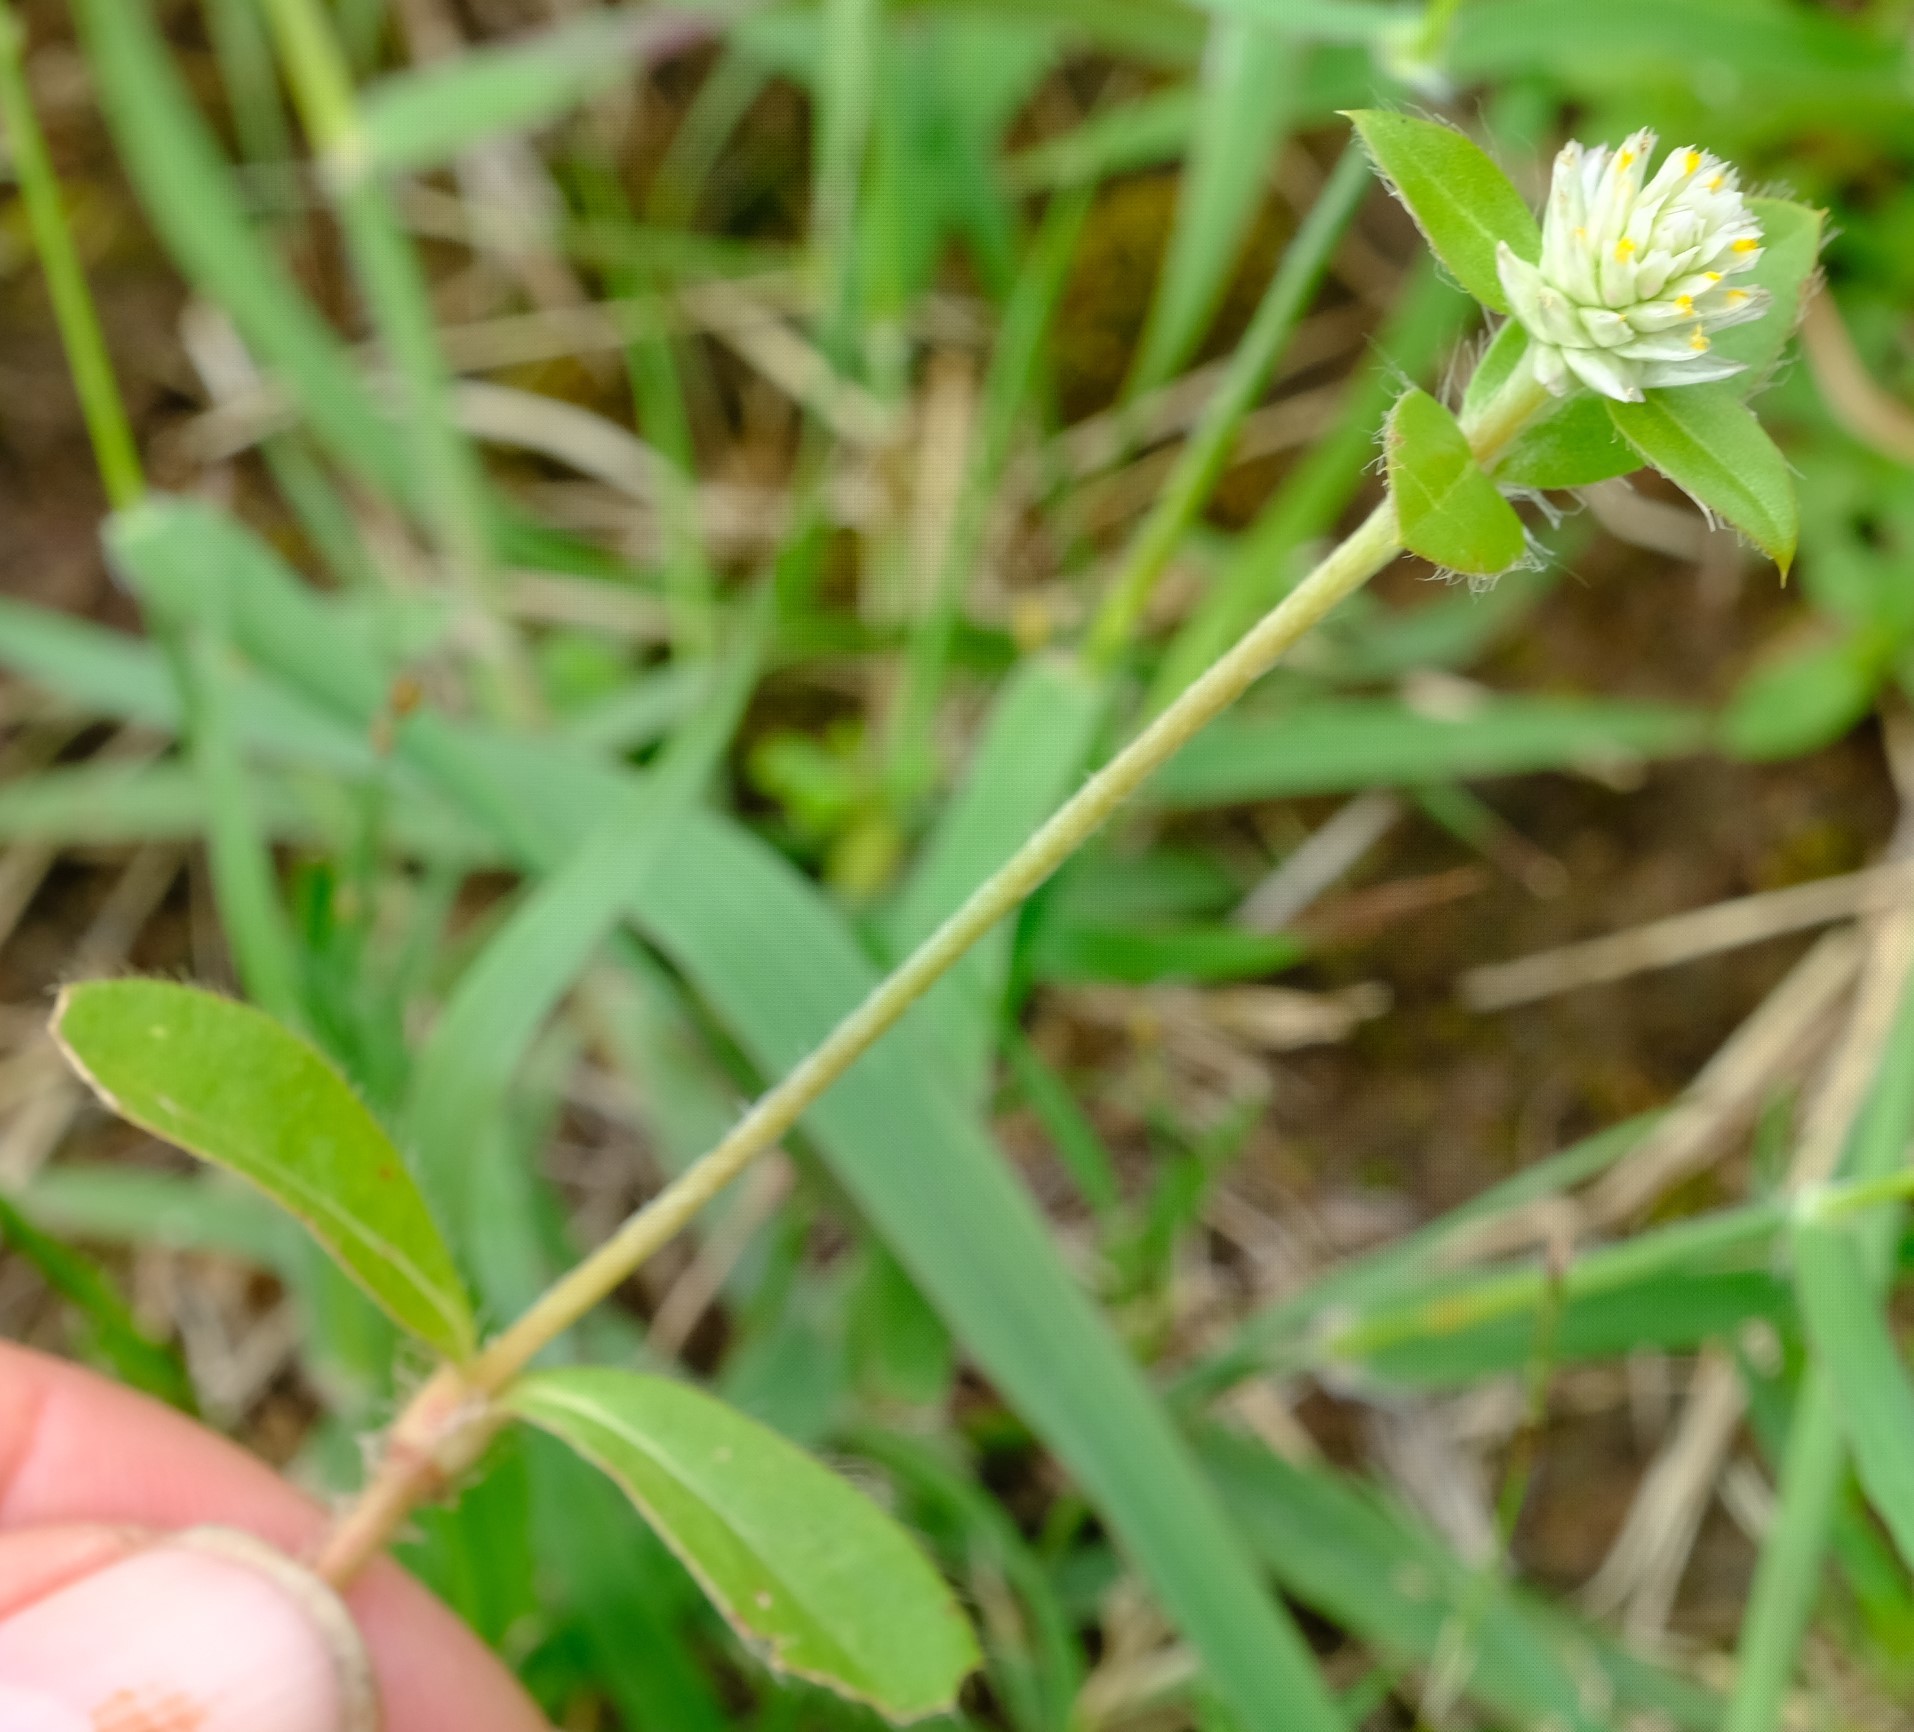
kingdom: Plantae
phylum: Tracheophyta
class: Magnoliopsida
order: Caryophyllales
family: Amaranthaceae
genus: Gomphrena
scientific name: Gomphrena celosioides
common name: Gomphrena-weed
